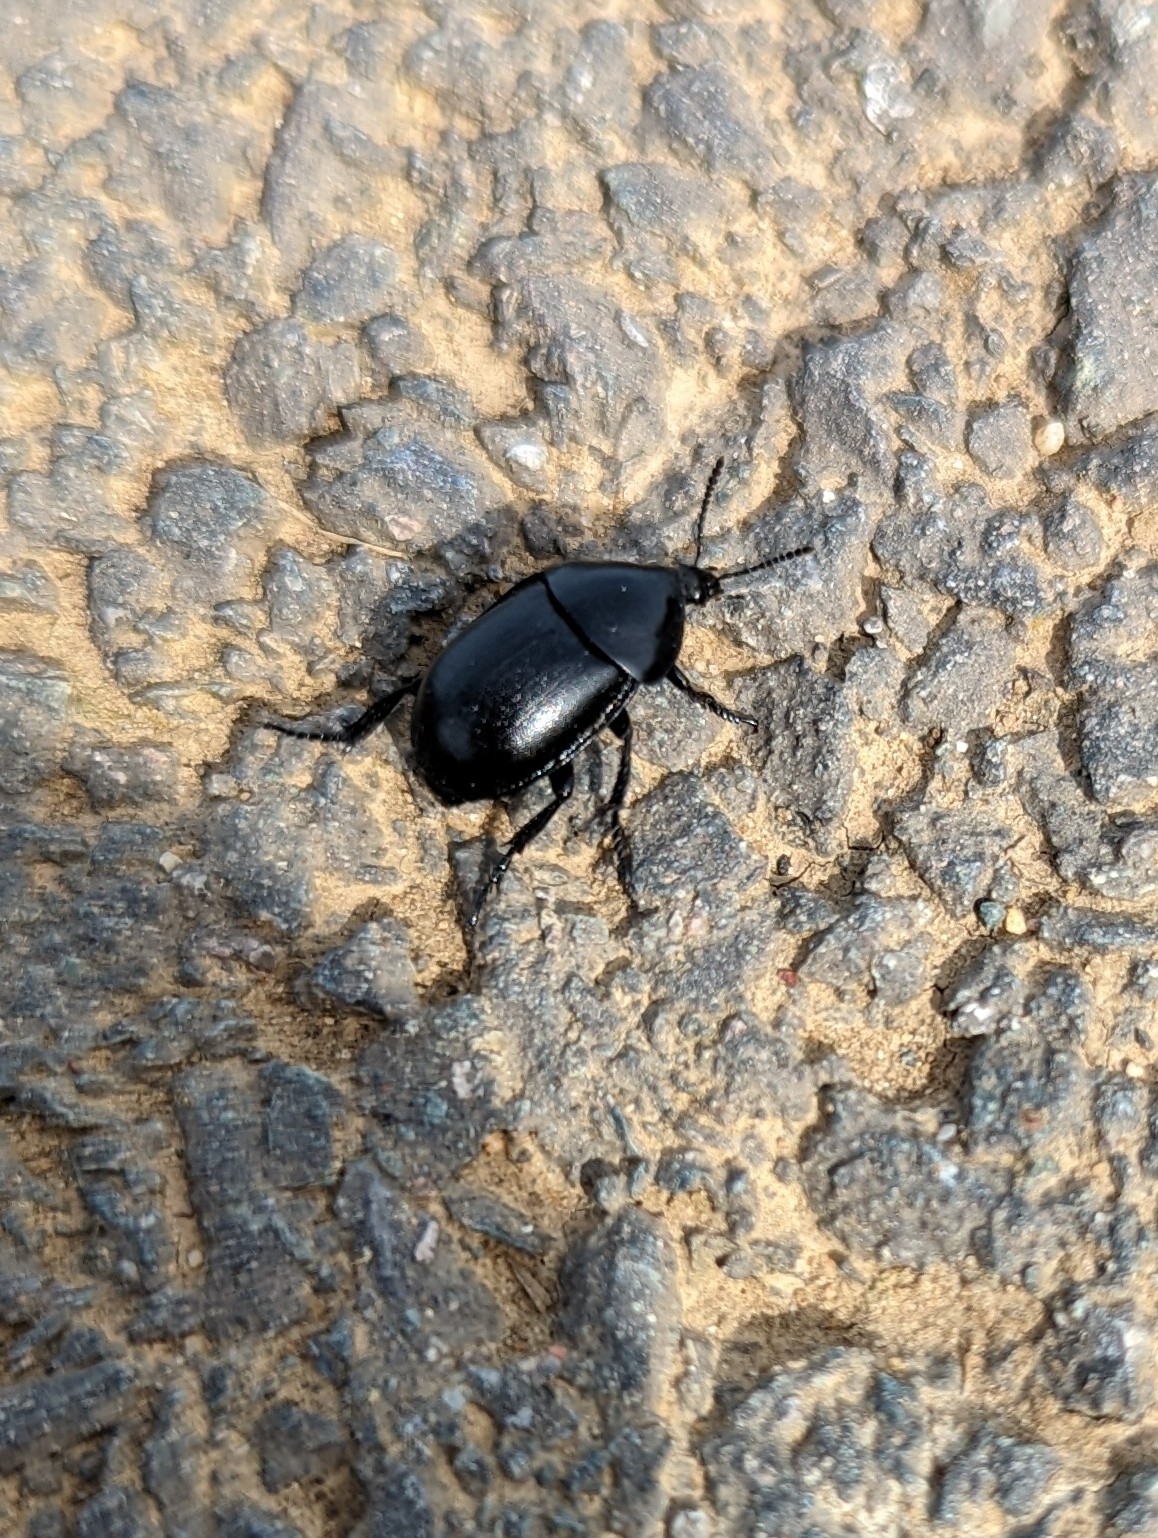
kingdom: Animalia
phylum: Arthropoda
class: Insecta
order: Coleoptera
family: Staphylinidae
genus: Silpha
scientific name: Silpha laevigata
